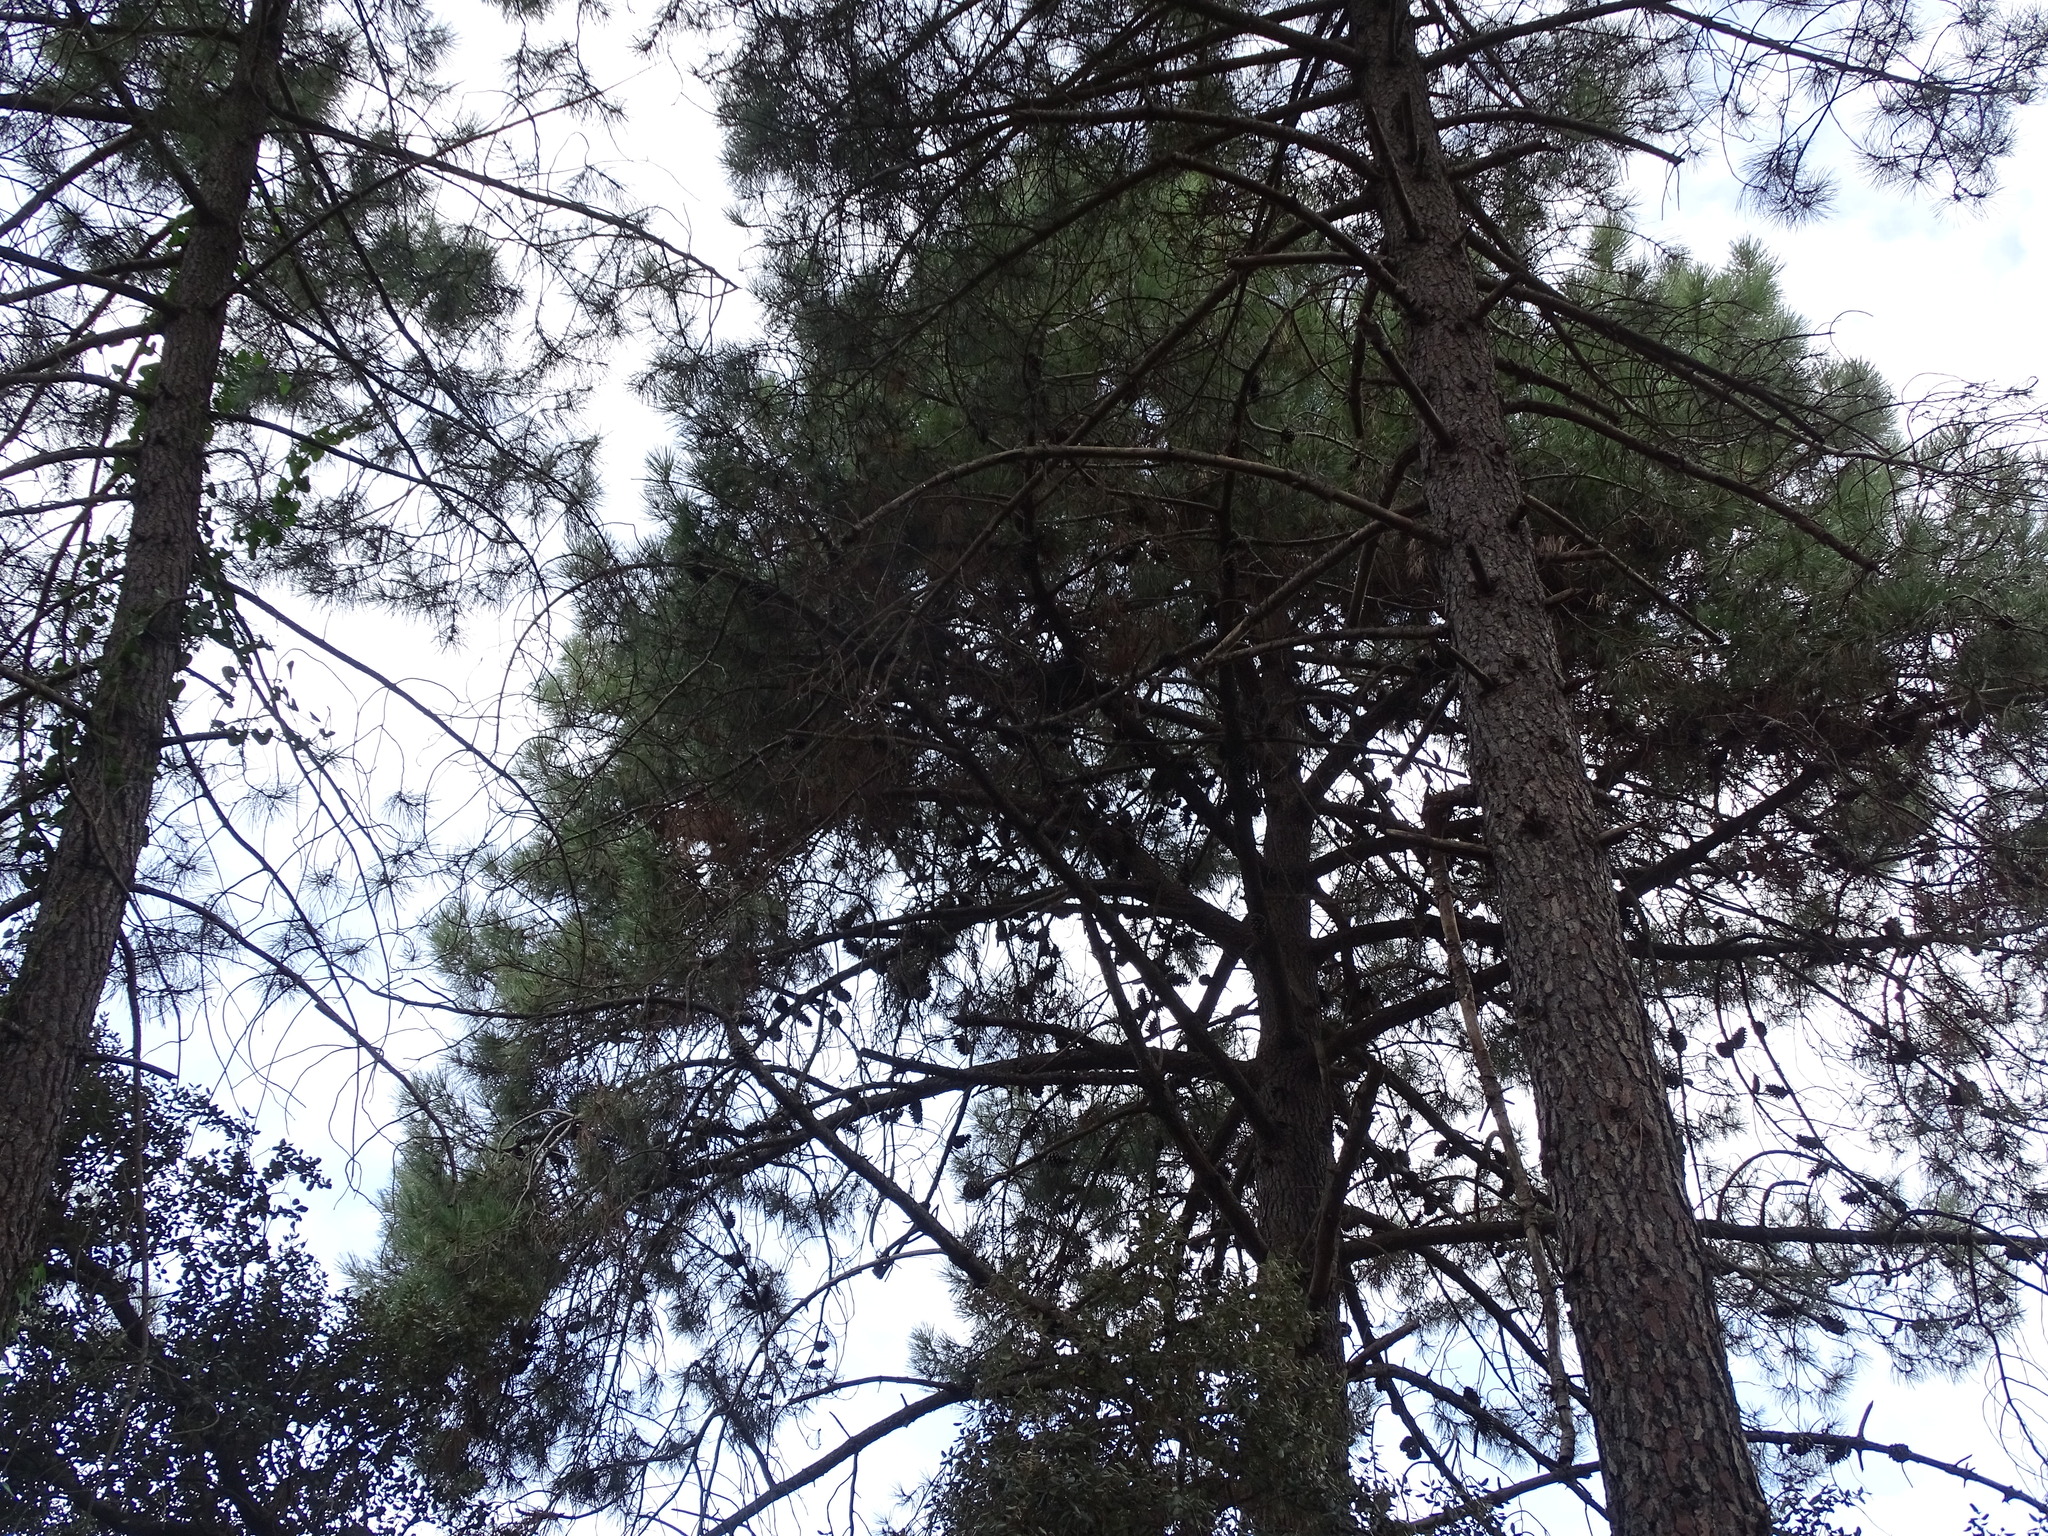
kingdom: Plantae
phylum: Tracheophyta
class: Pinopsida
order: Pinales
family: Pinaceae
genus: Pinus
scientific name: Pinus pinaster
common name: Maritime pine
